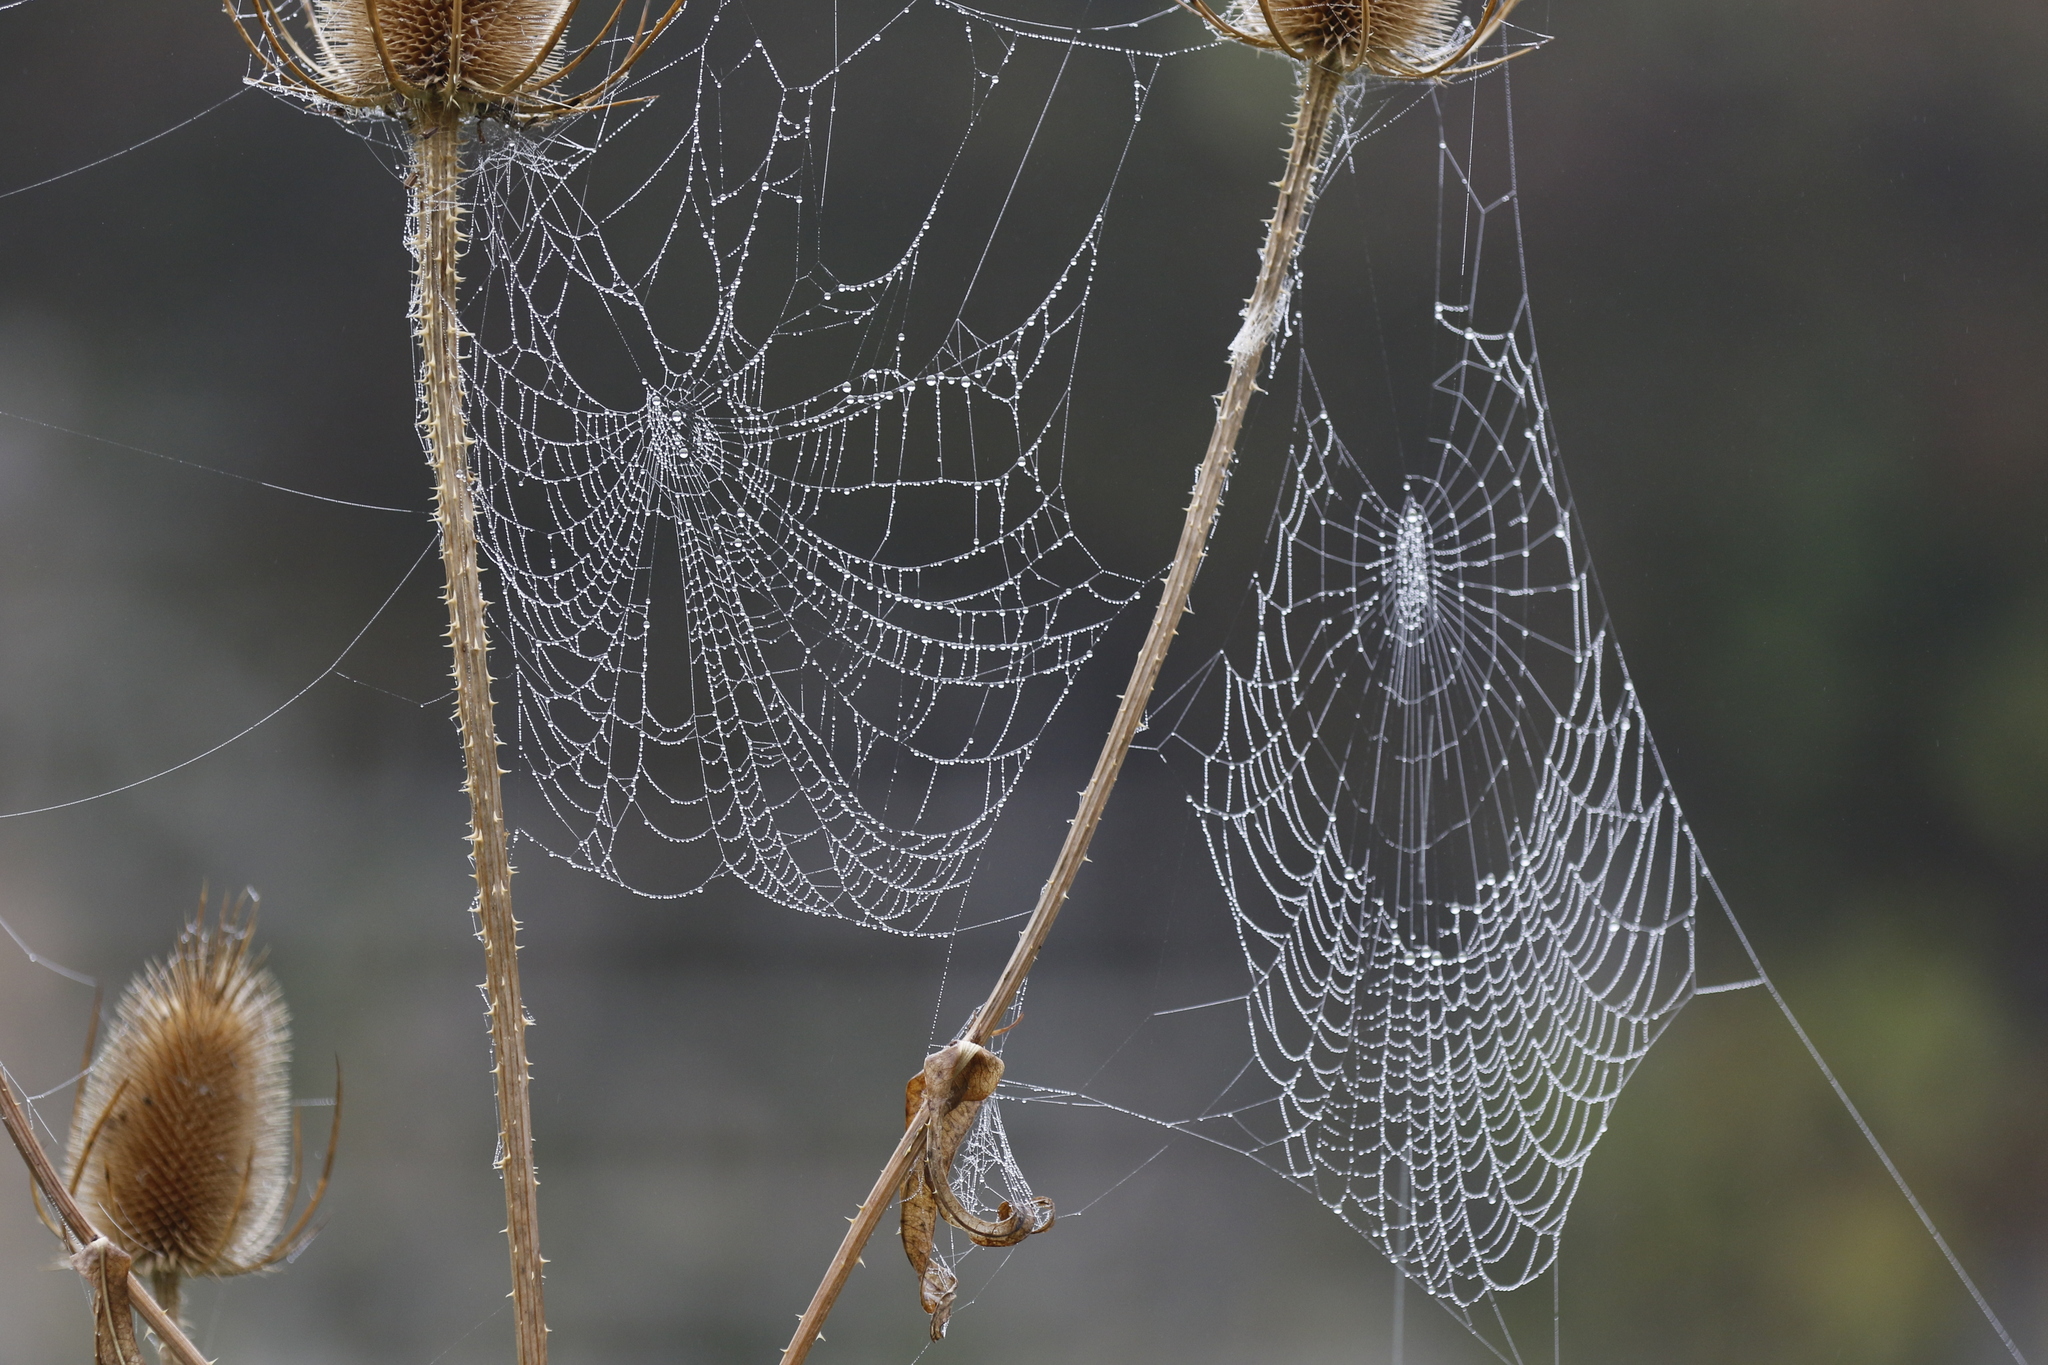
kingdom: Animalia
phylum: Arthropoda
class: Arachnida
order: Araneae
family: Araneidae
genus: Araneus
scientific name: Araneus diadematus
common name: Cross orbweaver
